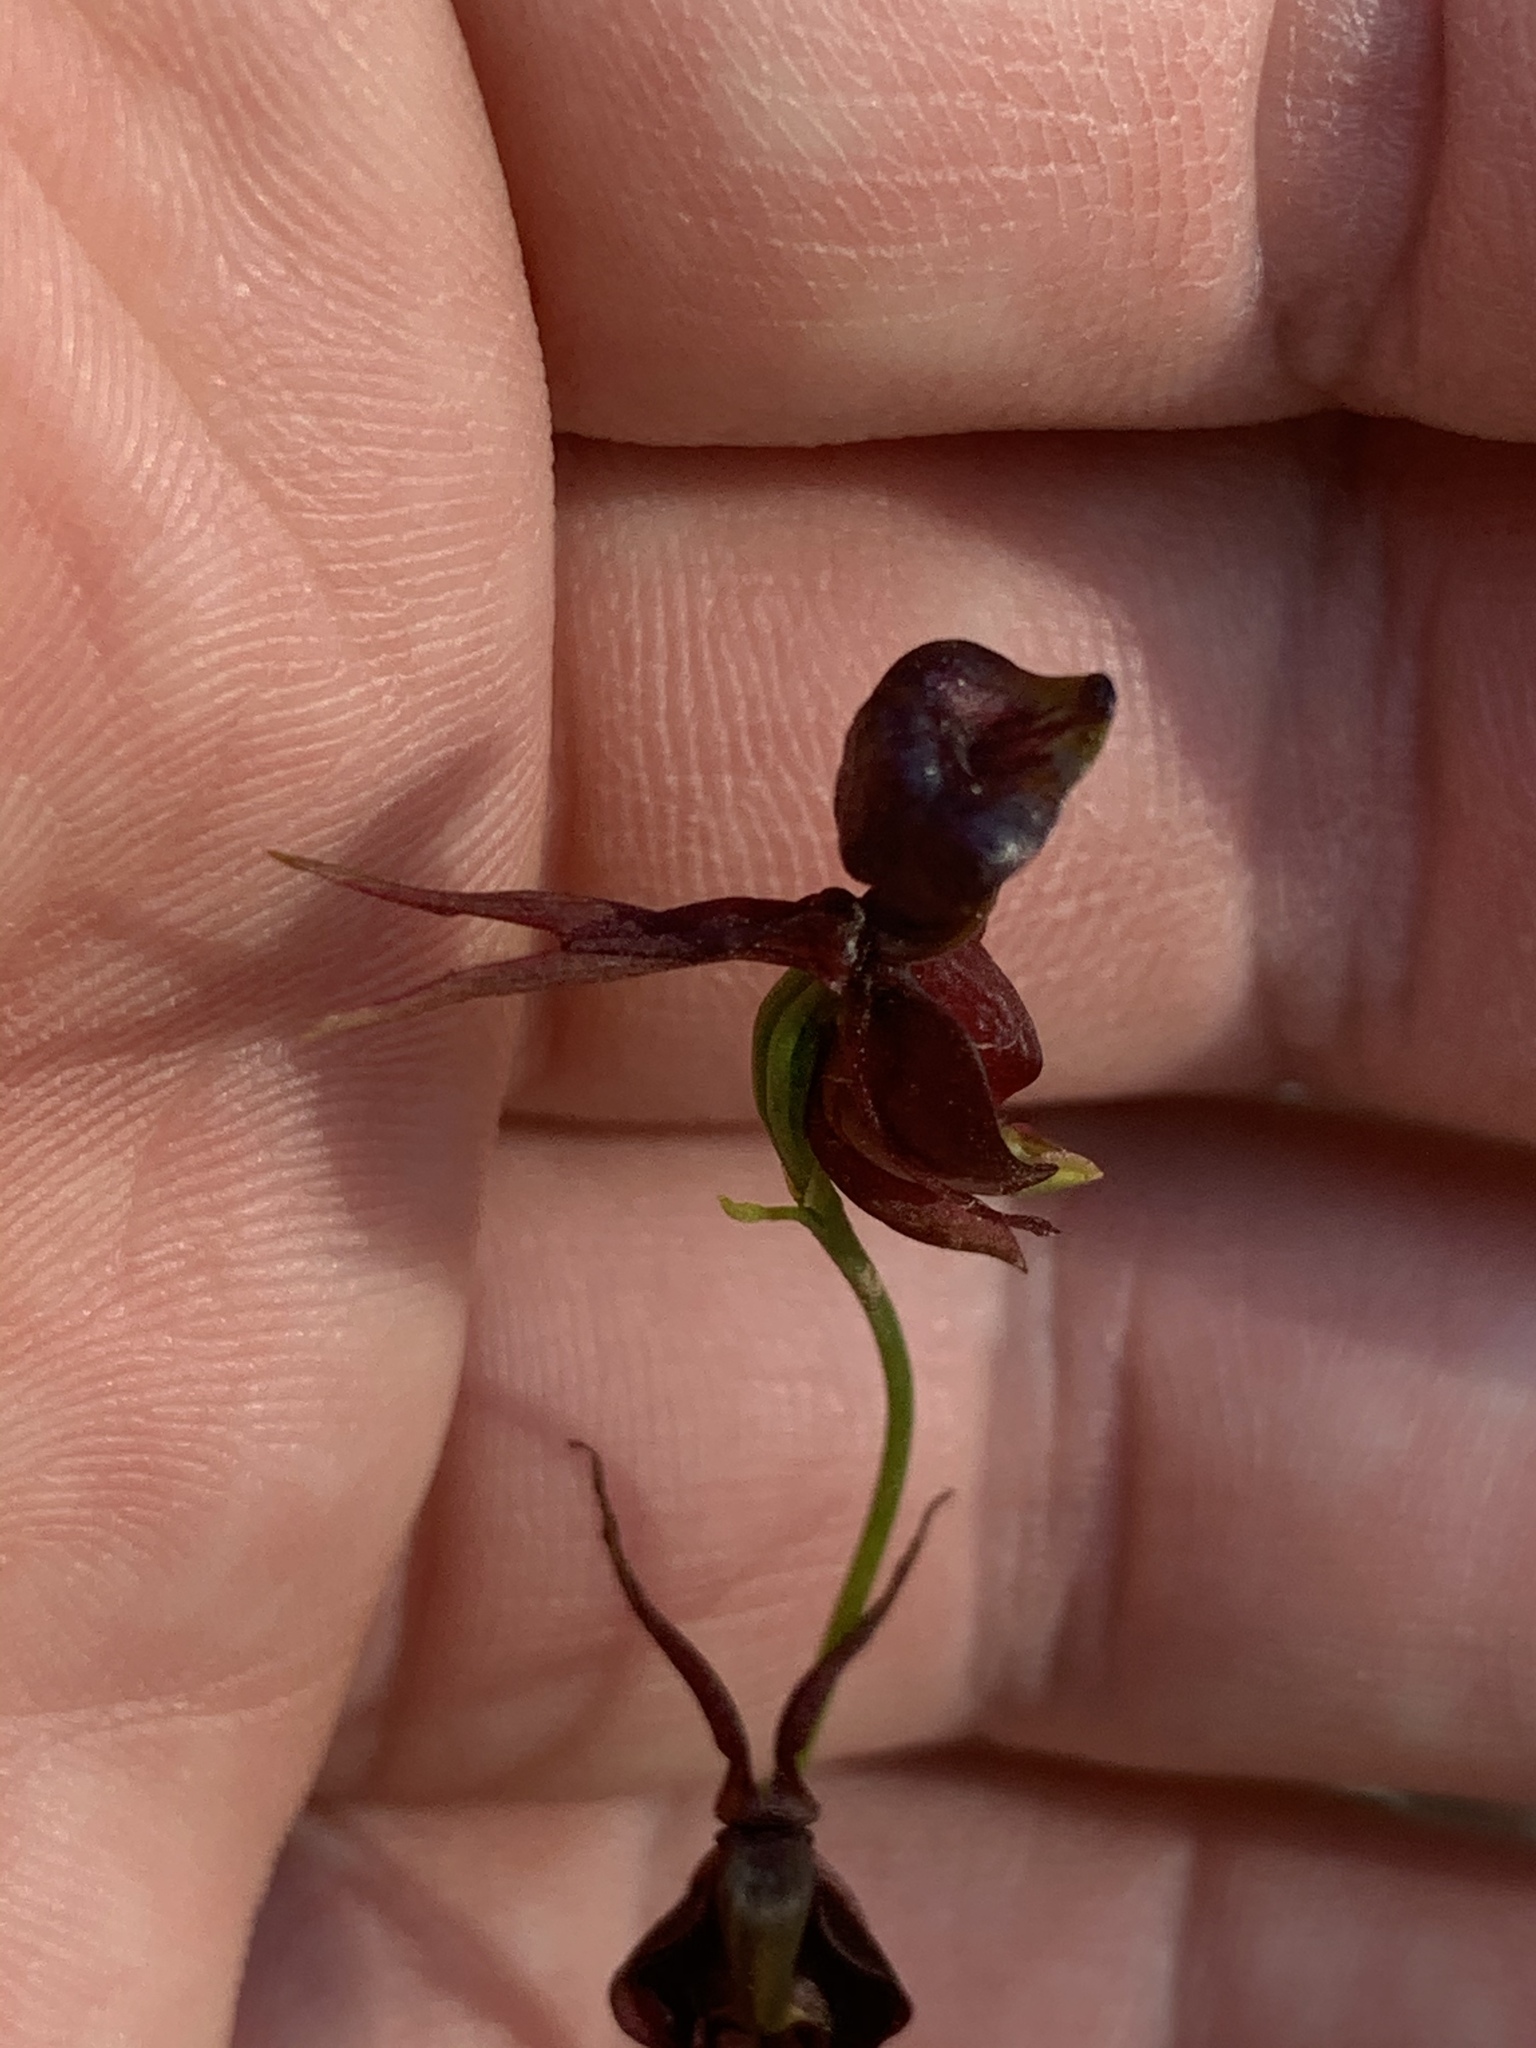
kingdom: Plantae
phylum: Tracheophyta
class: Liliopsida
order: Asparagales
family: Orchidaceae
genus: Caleana
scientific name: Caleana major
